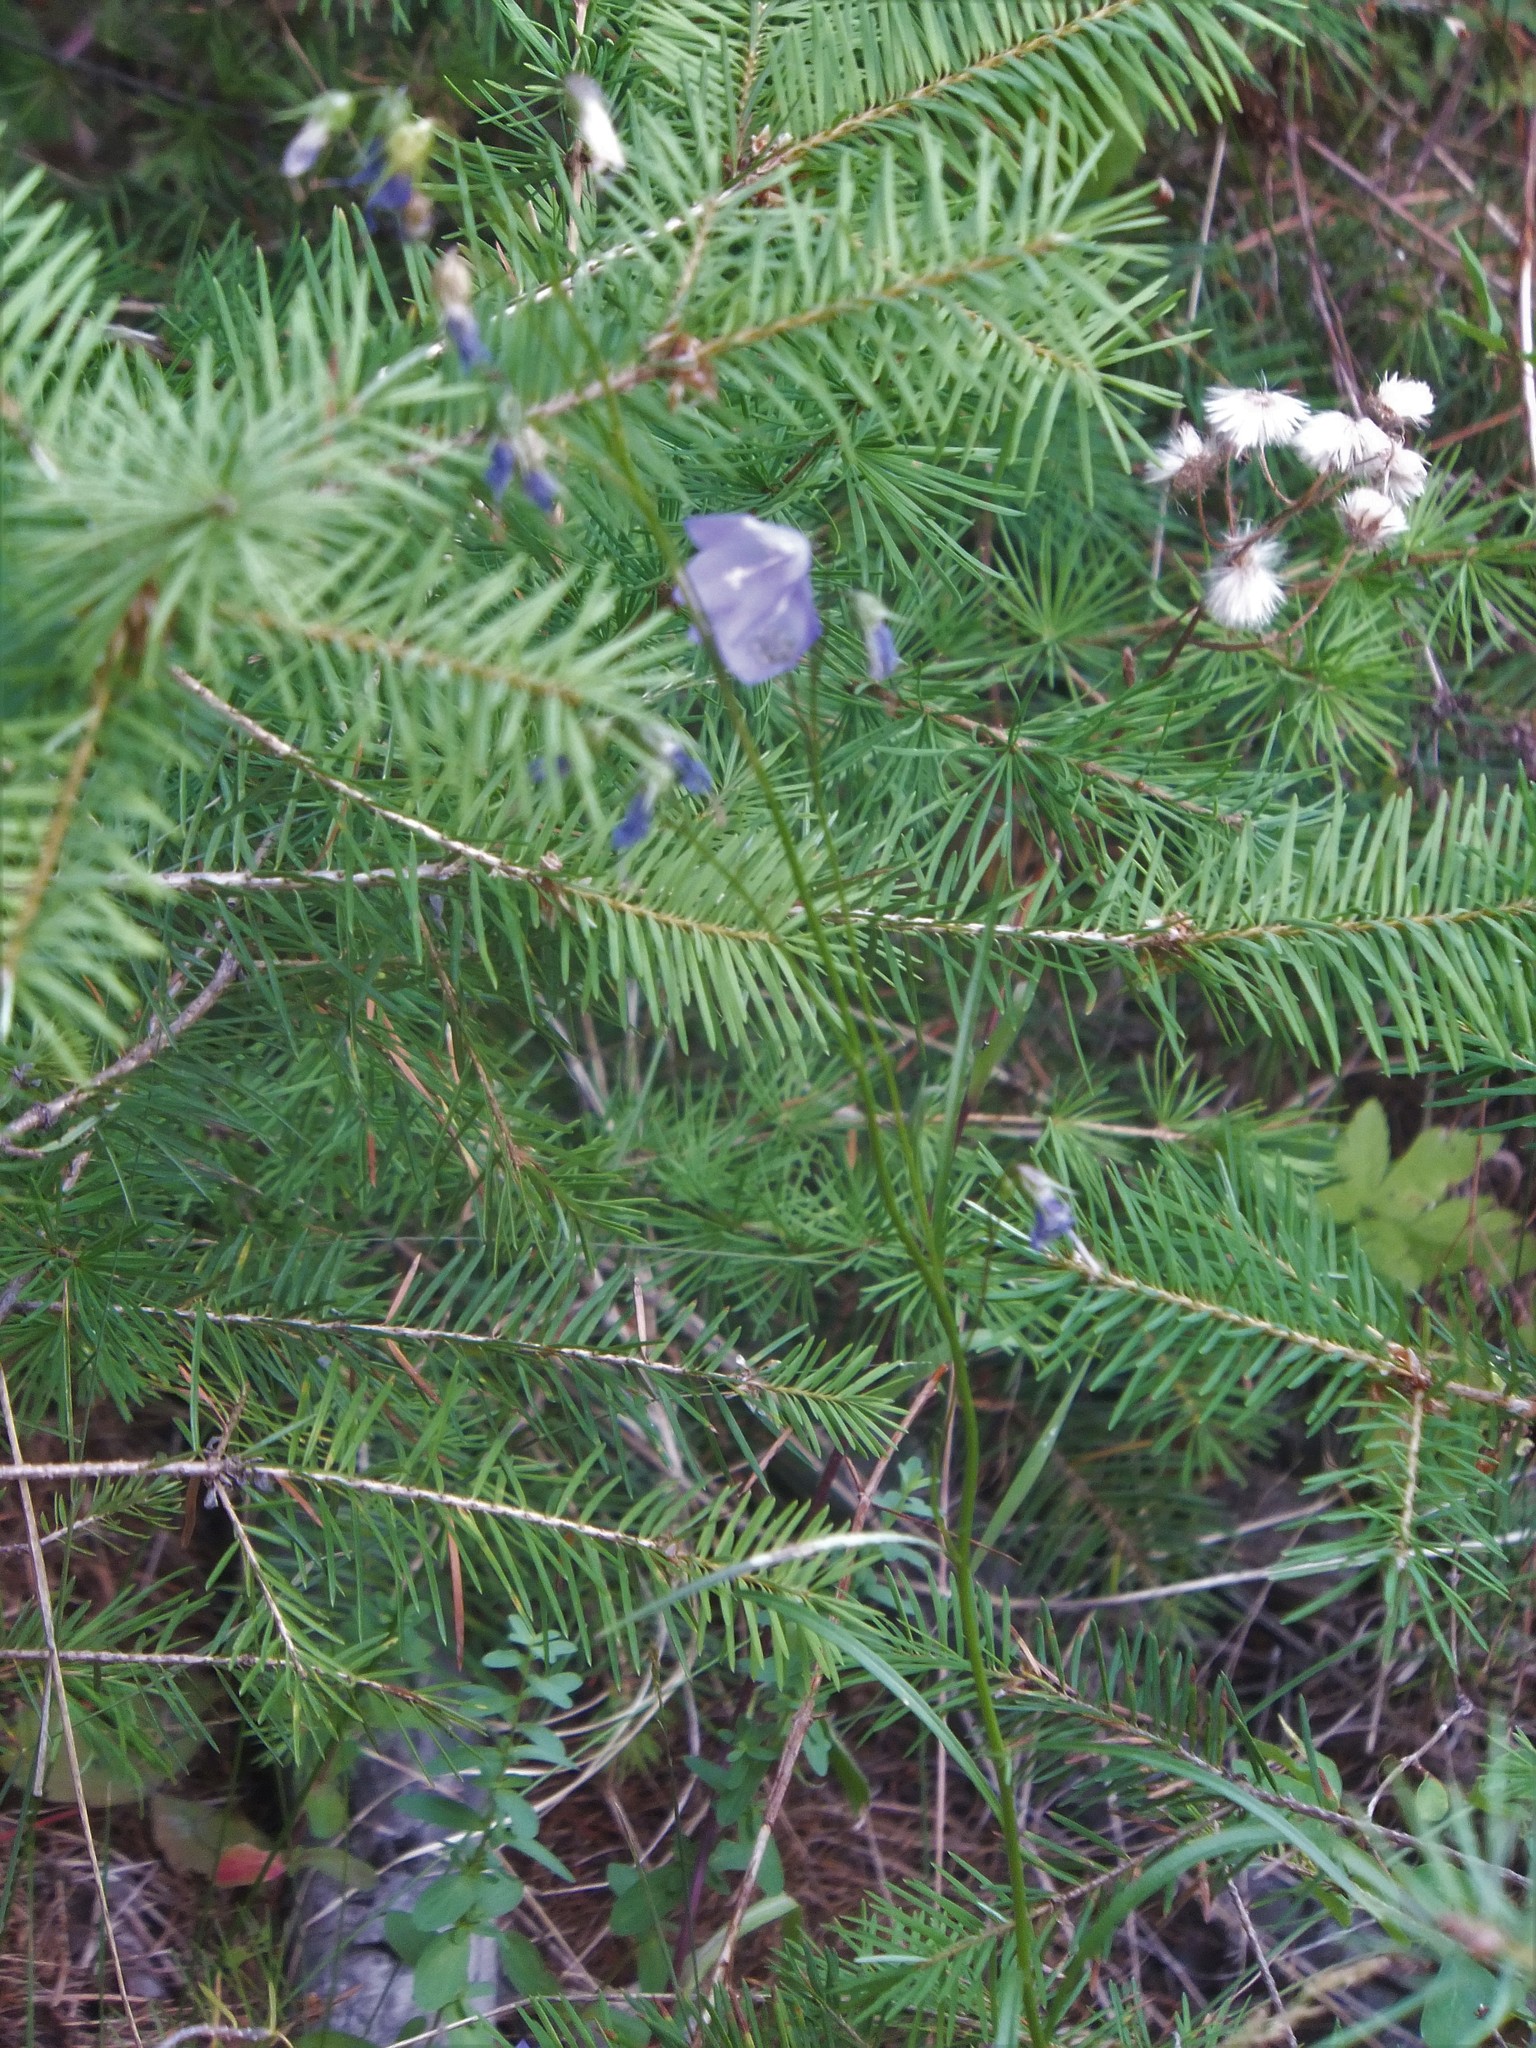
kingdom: Plantae
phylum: Tracheophyta
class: Magnoliopsida
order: Asterales
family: Campanulaceae
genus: Campanula
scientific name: Campanula alaskana
